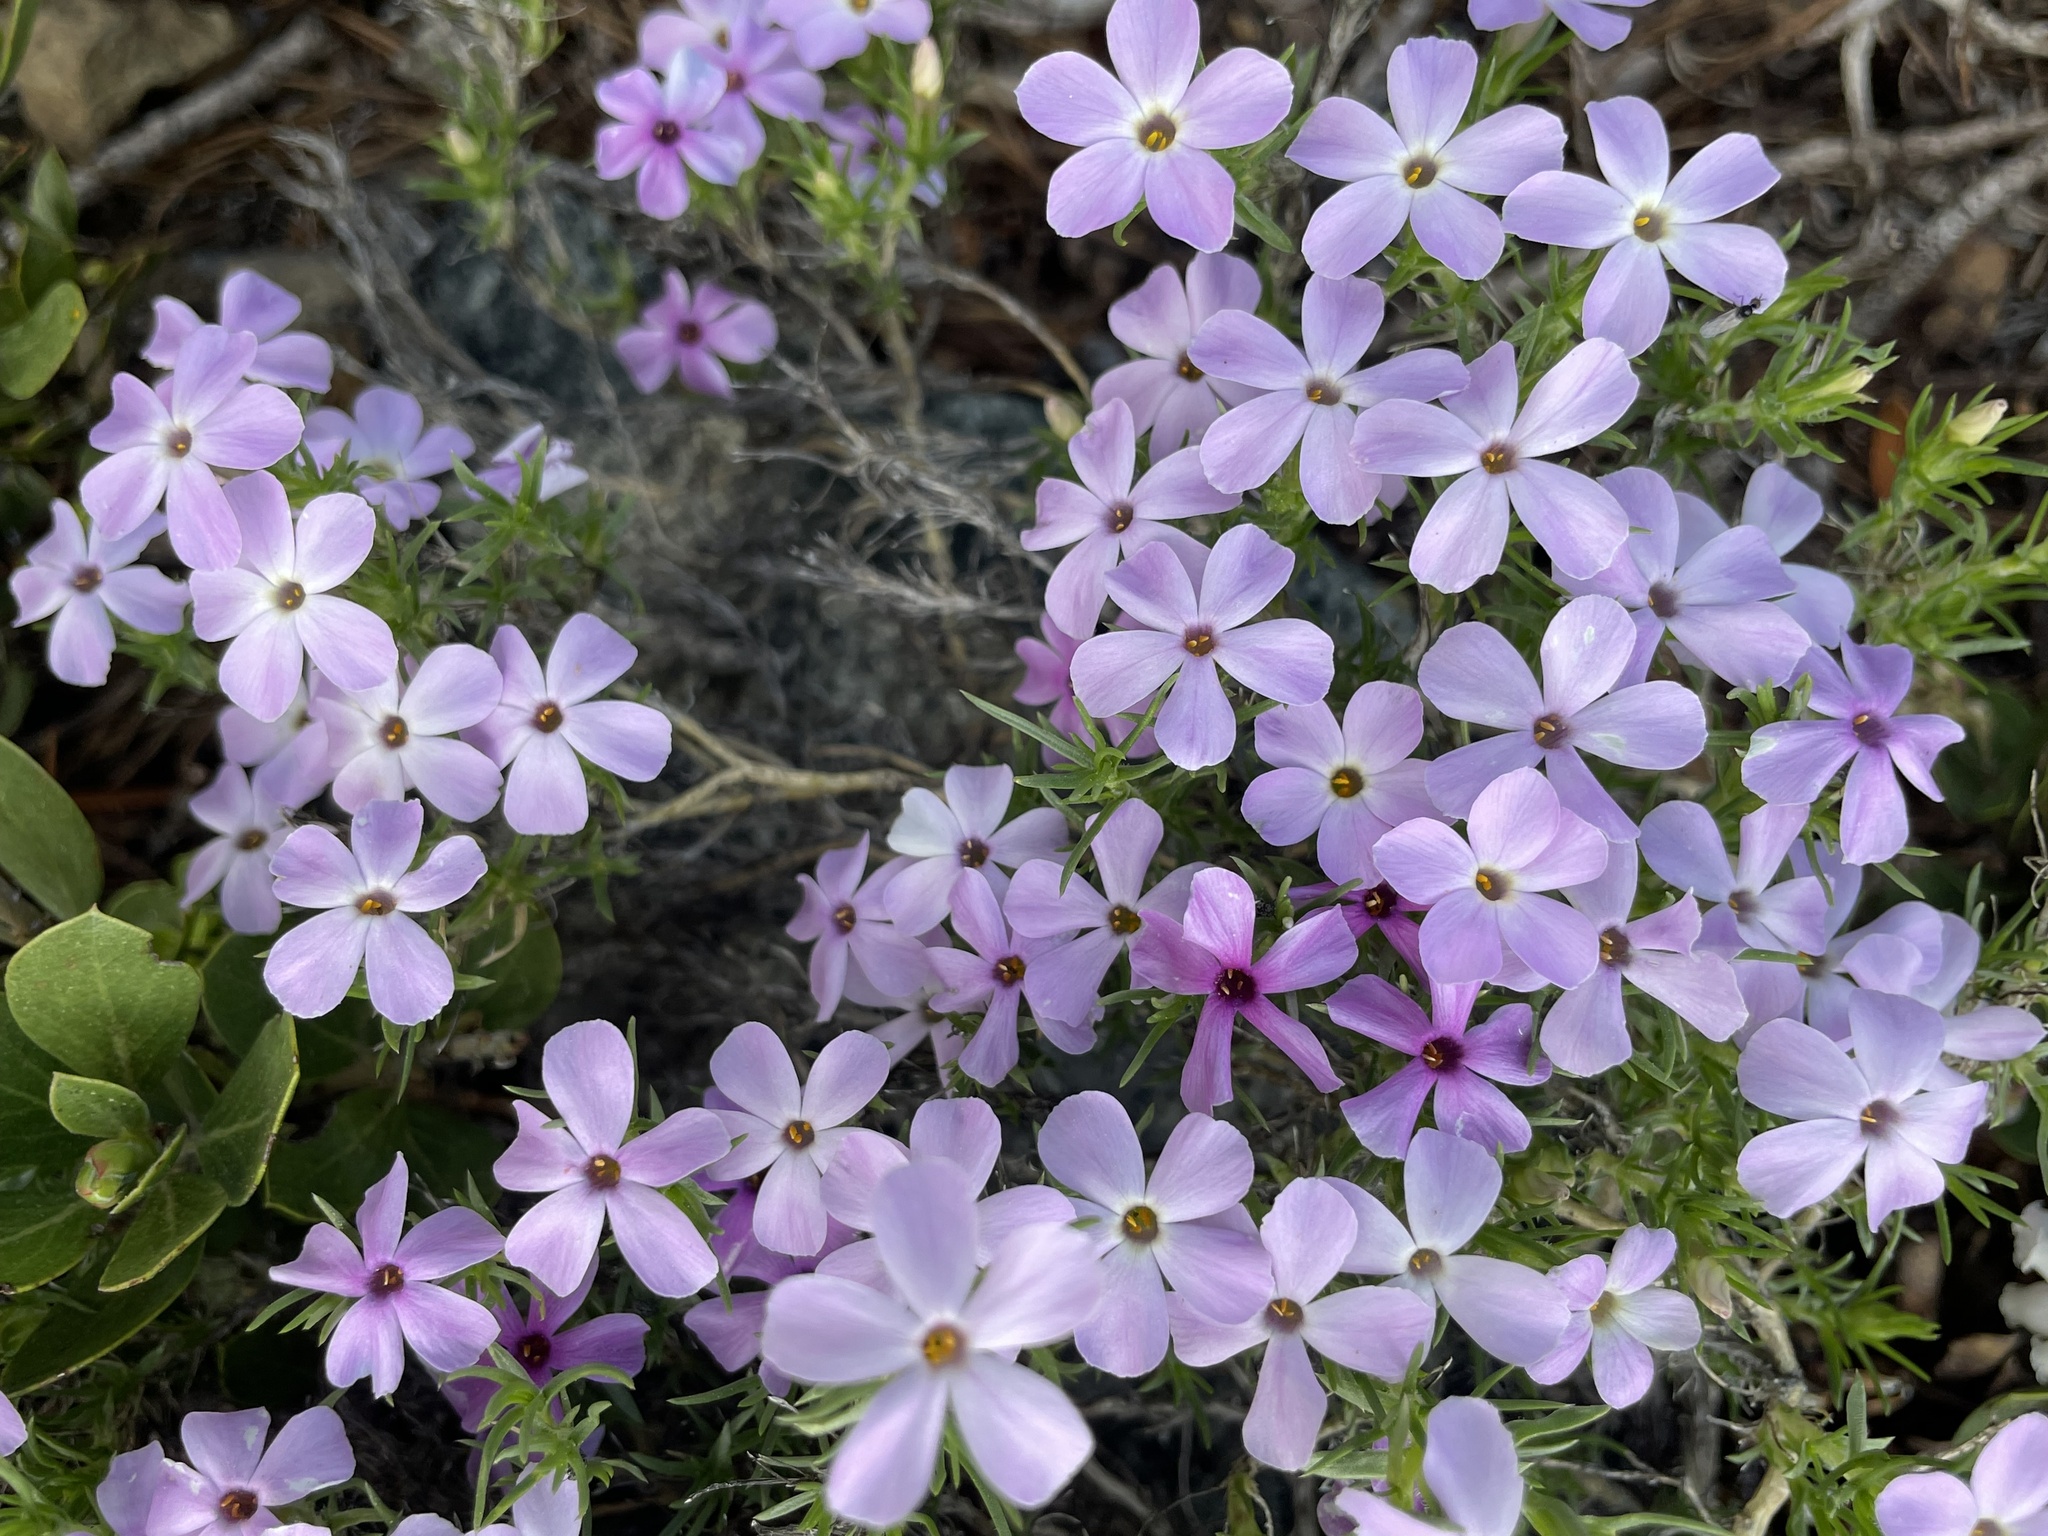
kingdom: Plantae
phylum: Tracheophyta
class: Magnoliopsida
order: Ericales
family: Polemoniaceae
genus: Phlox
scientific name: Phlox diffusa
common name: Mat phlox
